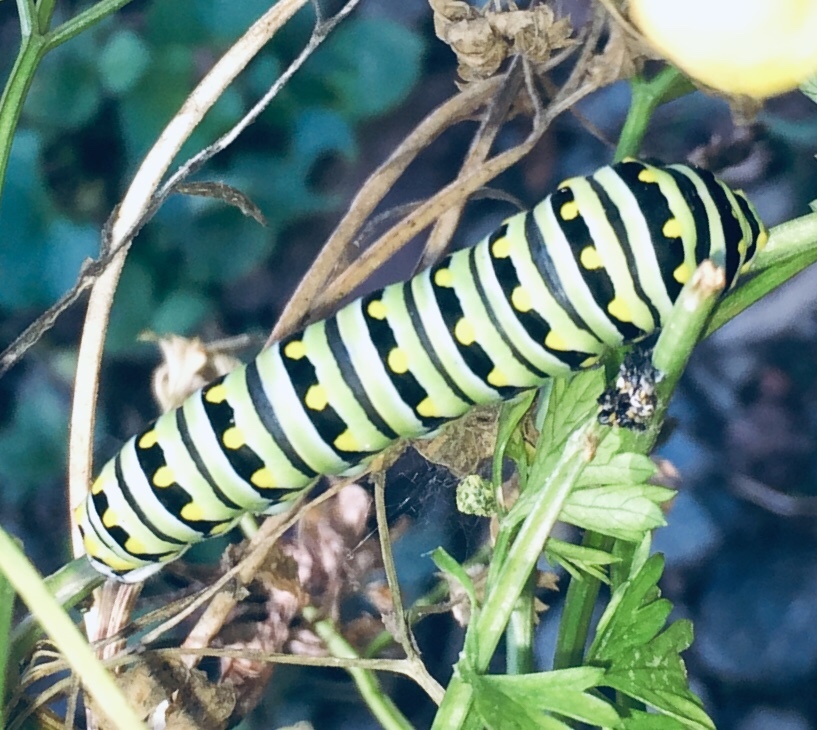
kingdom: Animalia
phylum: Arthropoda
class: Insecta
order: Lepidoptera
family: Papilionidae
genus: Papilio
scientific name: Papilio polyxenes
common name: Black swallowtail
